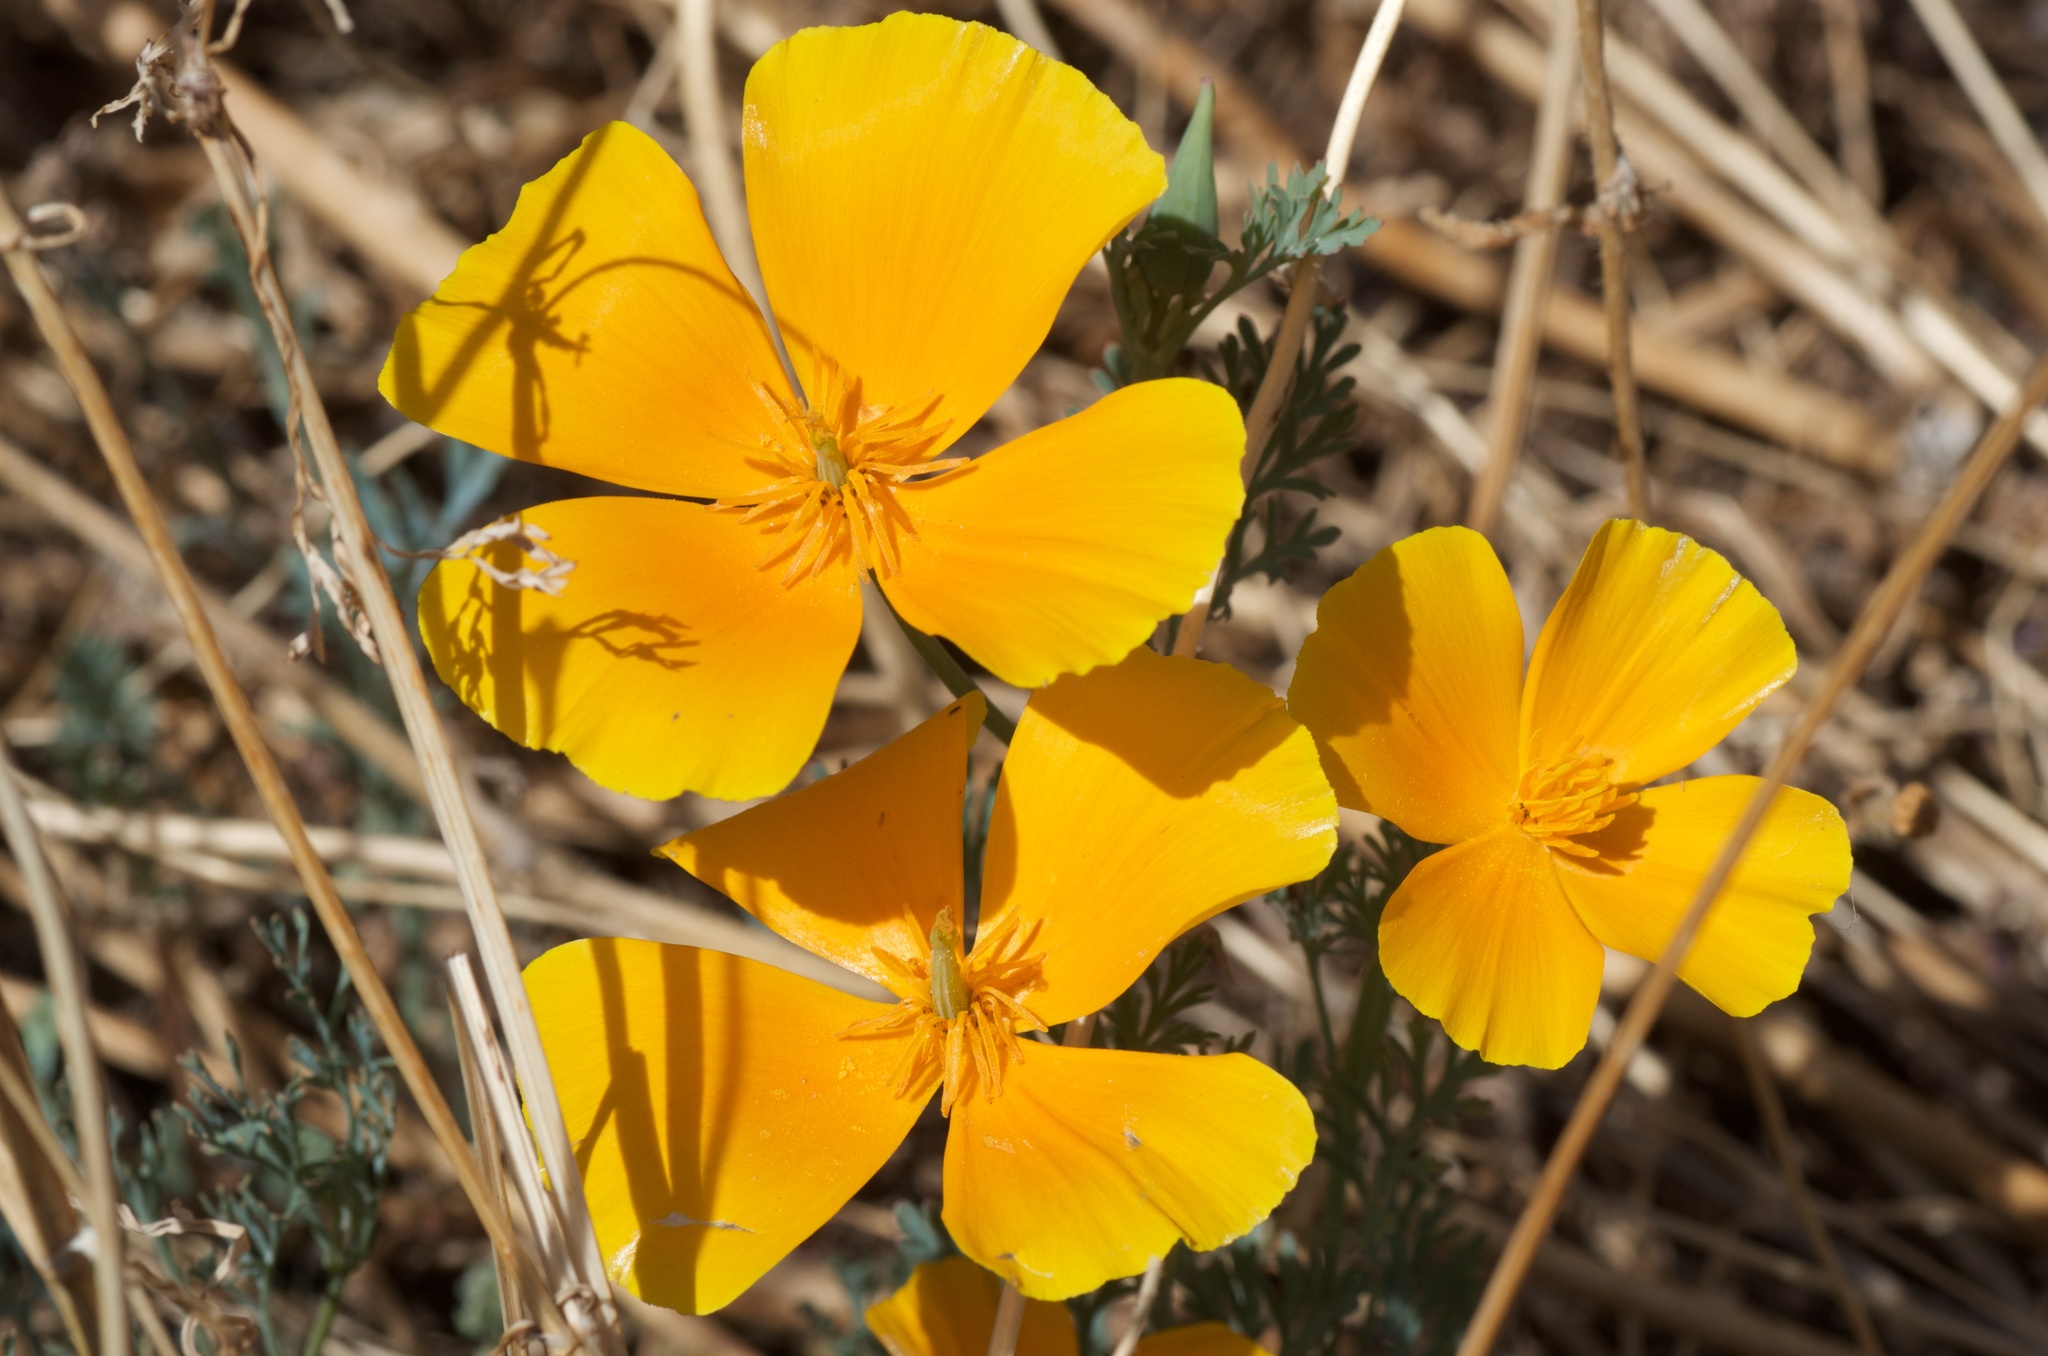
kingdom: Plantae
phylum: Tracheophyta
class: Magnoliopsida
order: Ranunculales
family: Papaveraceae
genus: Eschscholzia
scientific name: Eschscholzia californica
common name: California poppy
